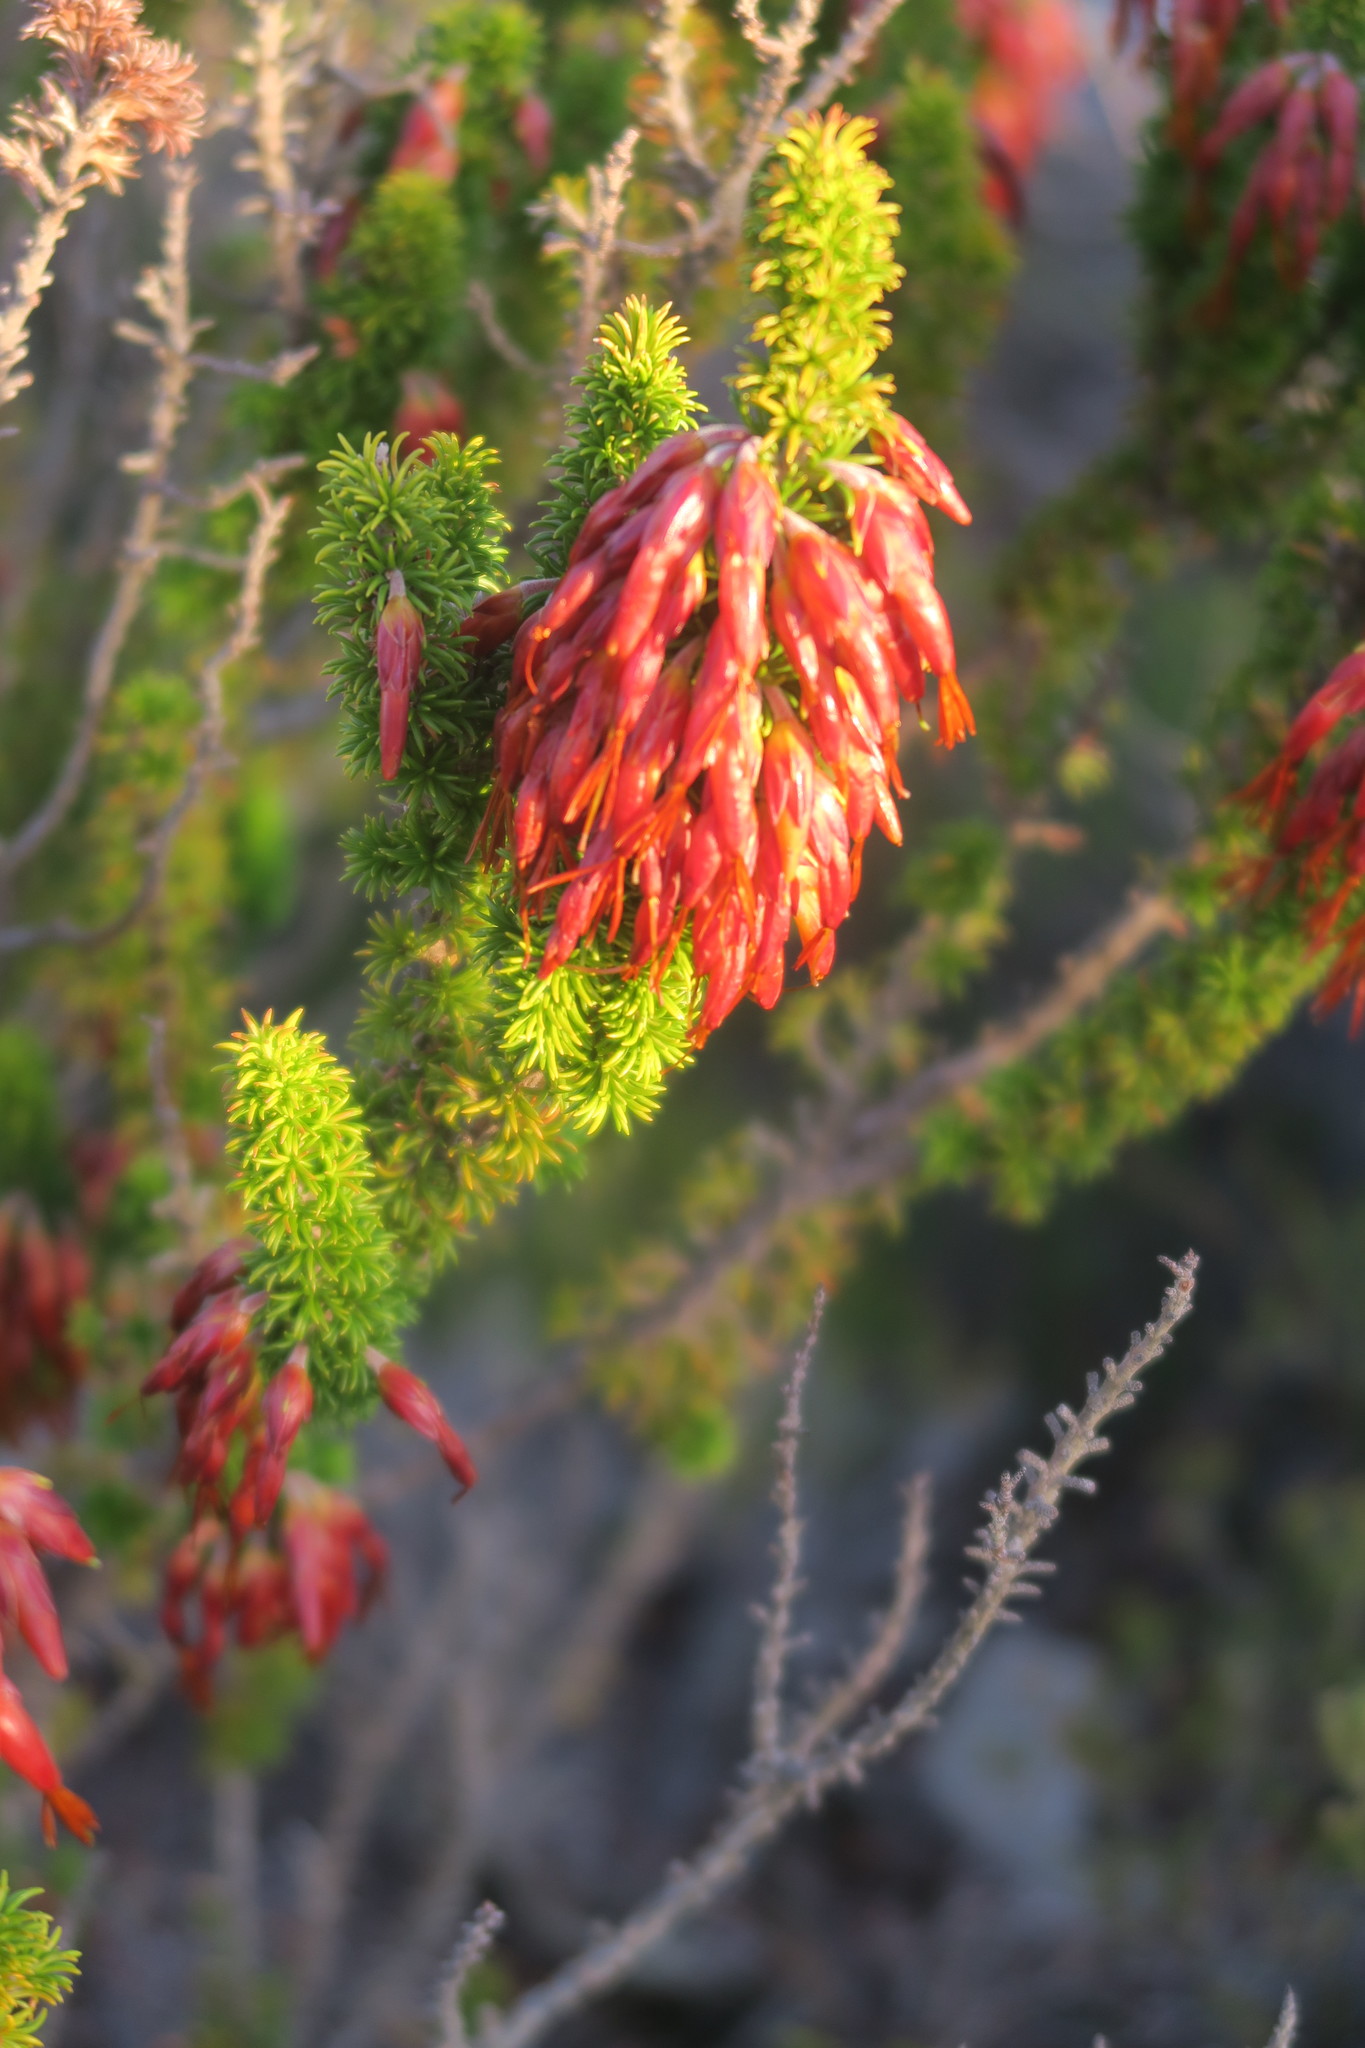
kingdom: Plantae
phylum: Tracheophyta
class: Magnoliopsida
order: Ericales
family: Ericaceae
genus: Erica
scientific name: Erica coccinea
